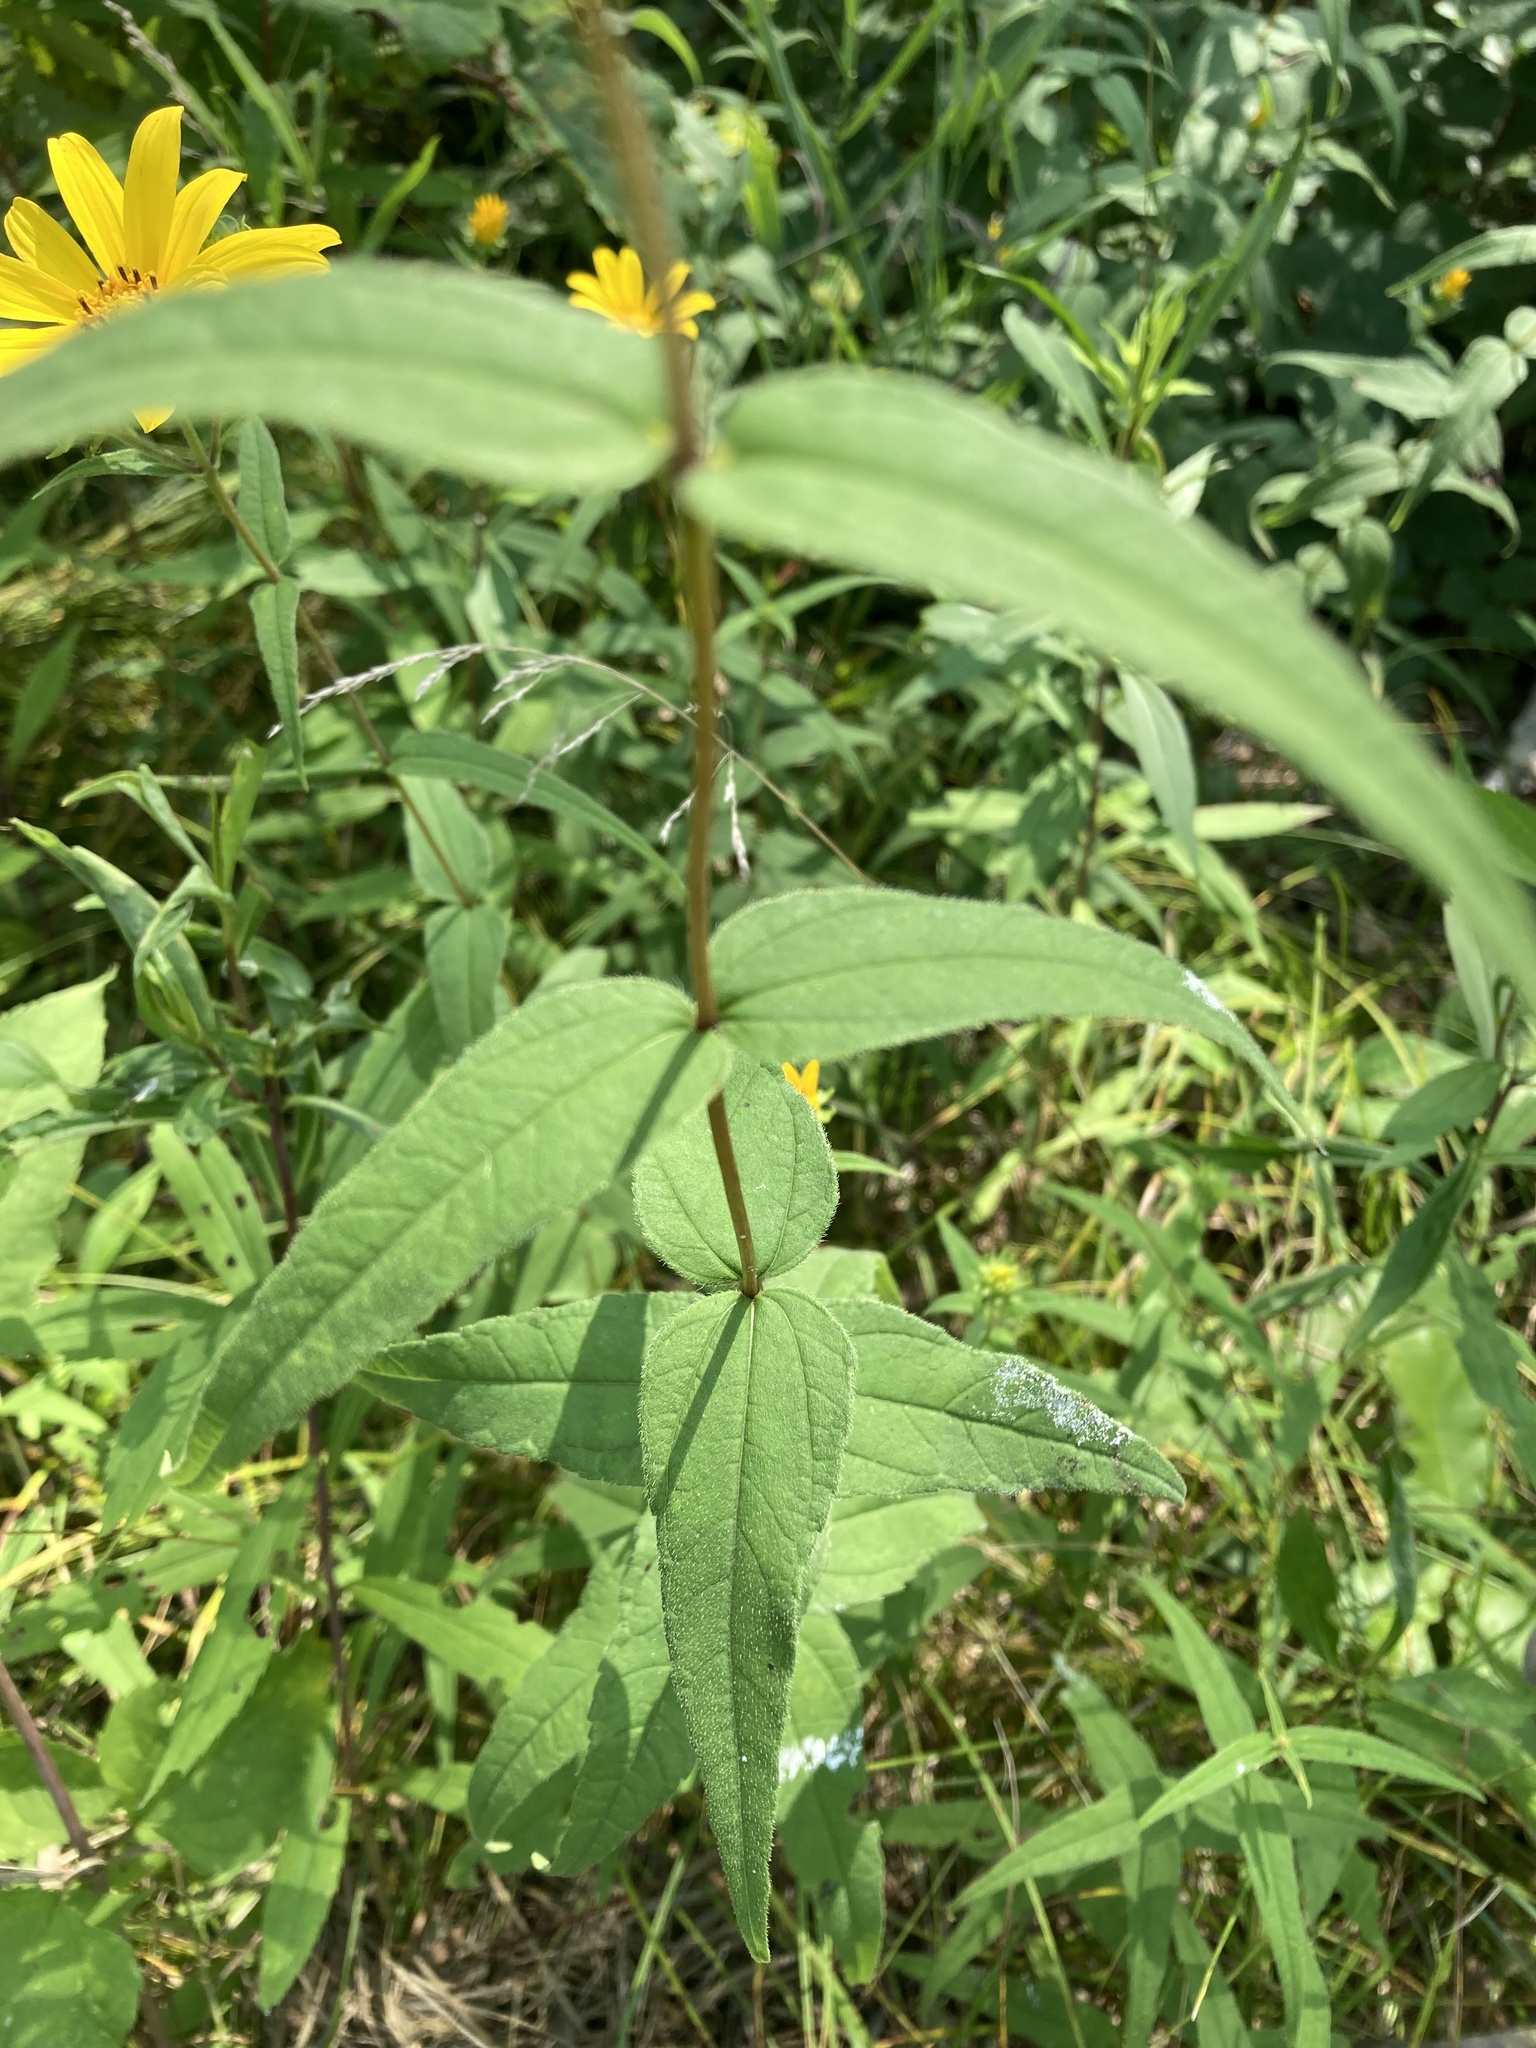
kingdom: Plantae
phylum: Tracheophyta
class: Magnoliopsida
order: Asterales
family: Asteraceae
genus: Helianthus
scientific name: Helianthus divaricatus
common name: Divergent sunflower
